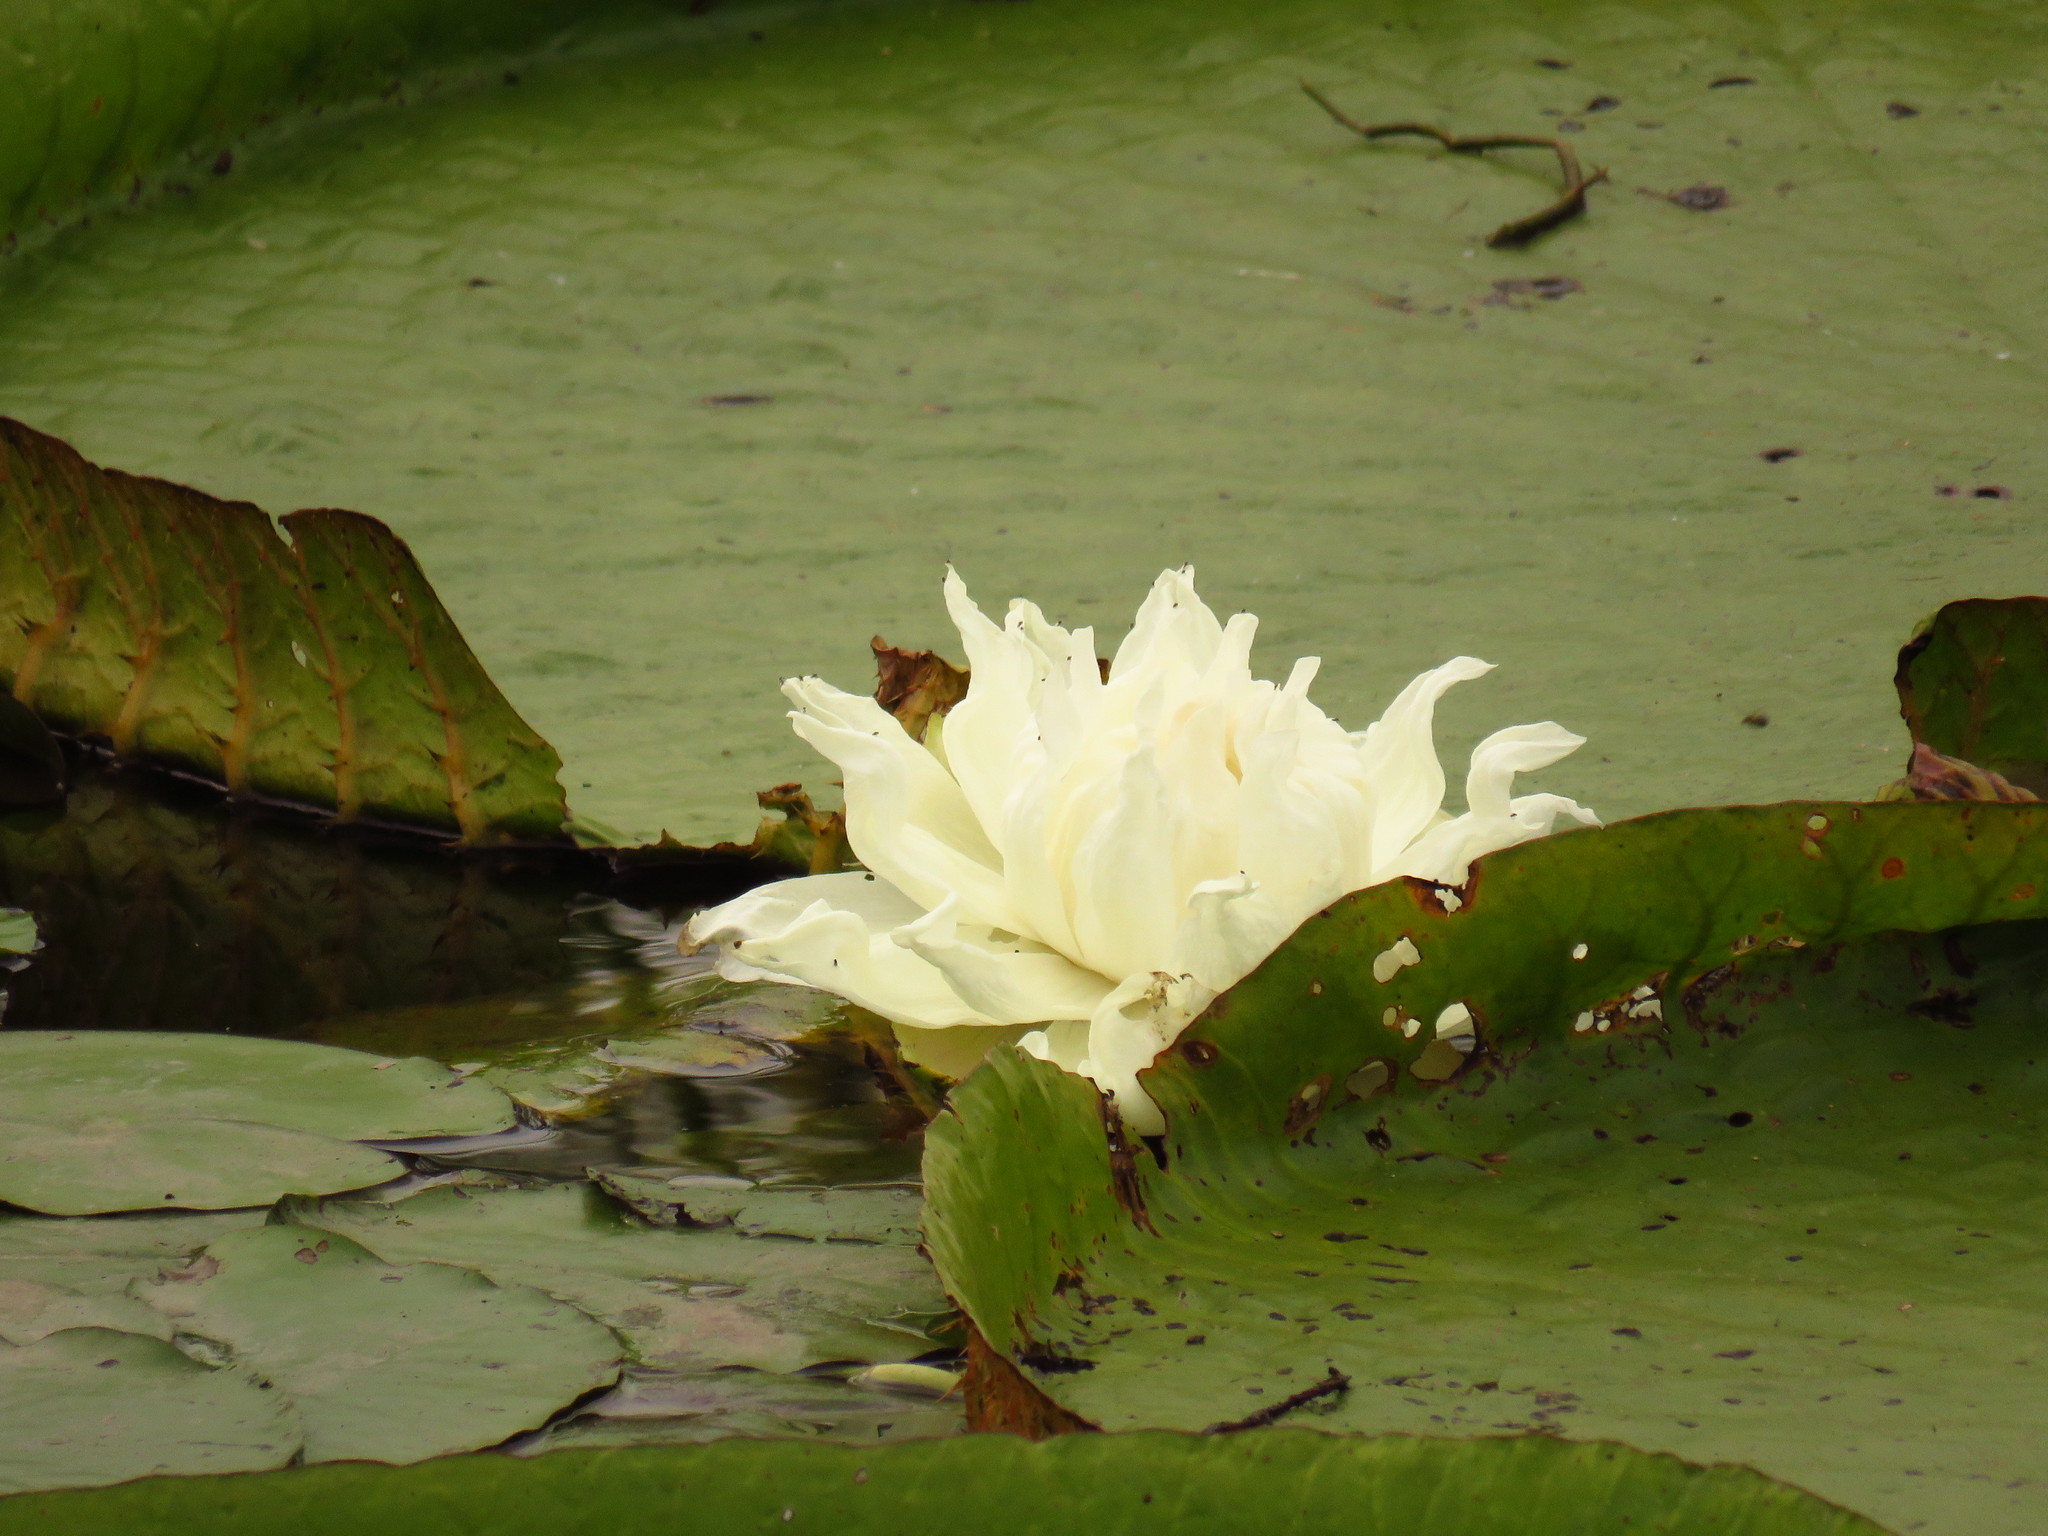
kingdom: Plantae
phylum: Tracheophyta
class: Magnoliopsida
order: Nymphaeales
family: Nymphaeaceae
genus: Victoria
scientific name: Victoria cruziana
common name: Santa cruz water-lily
